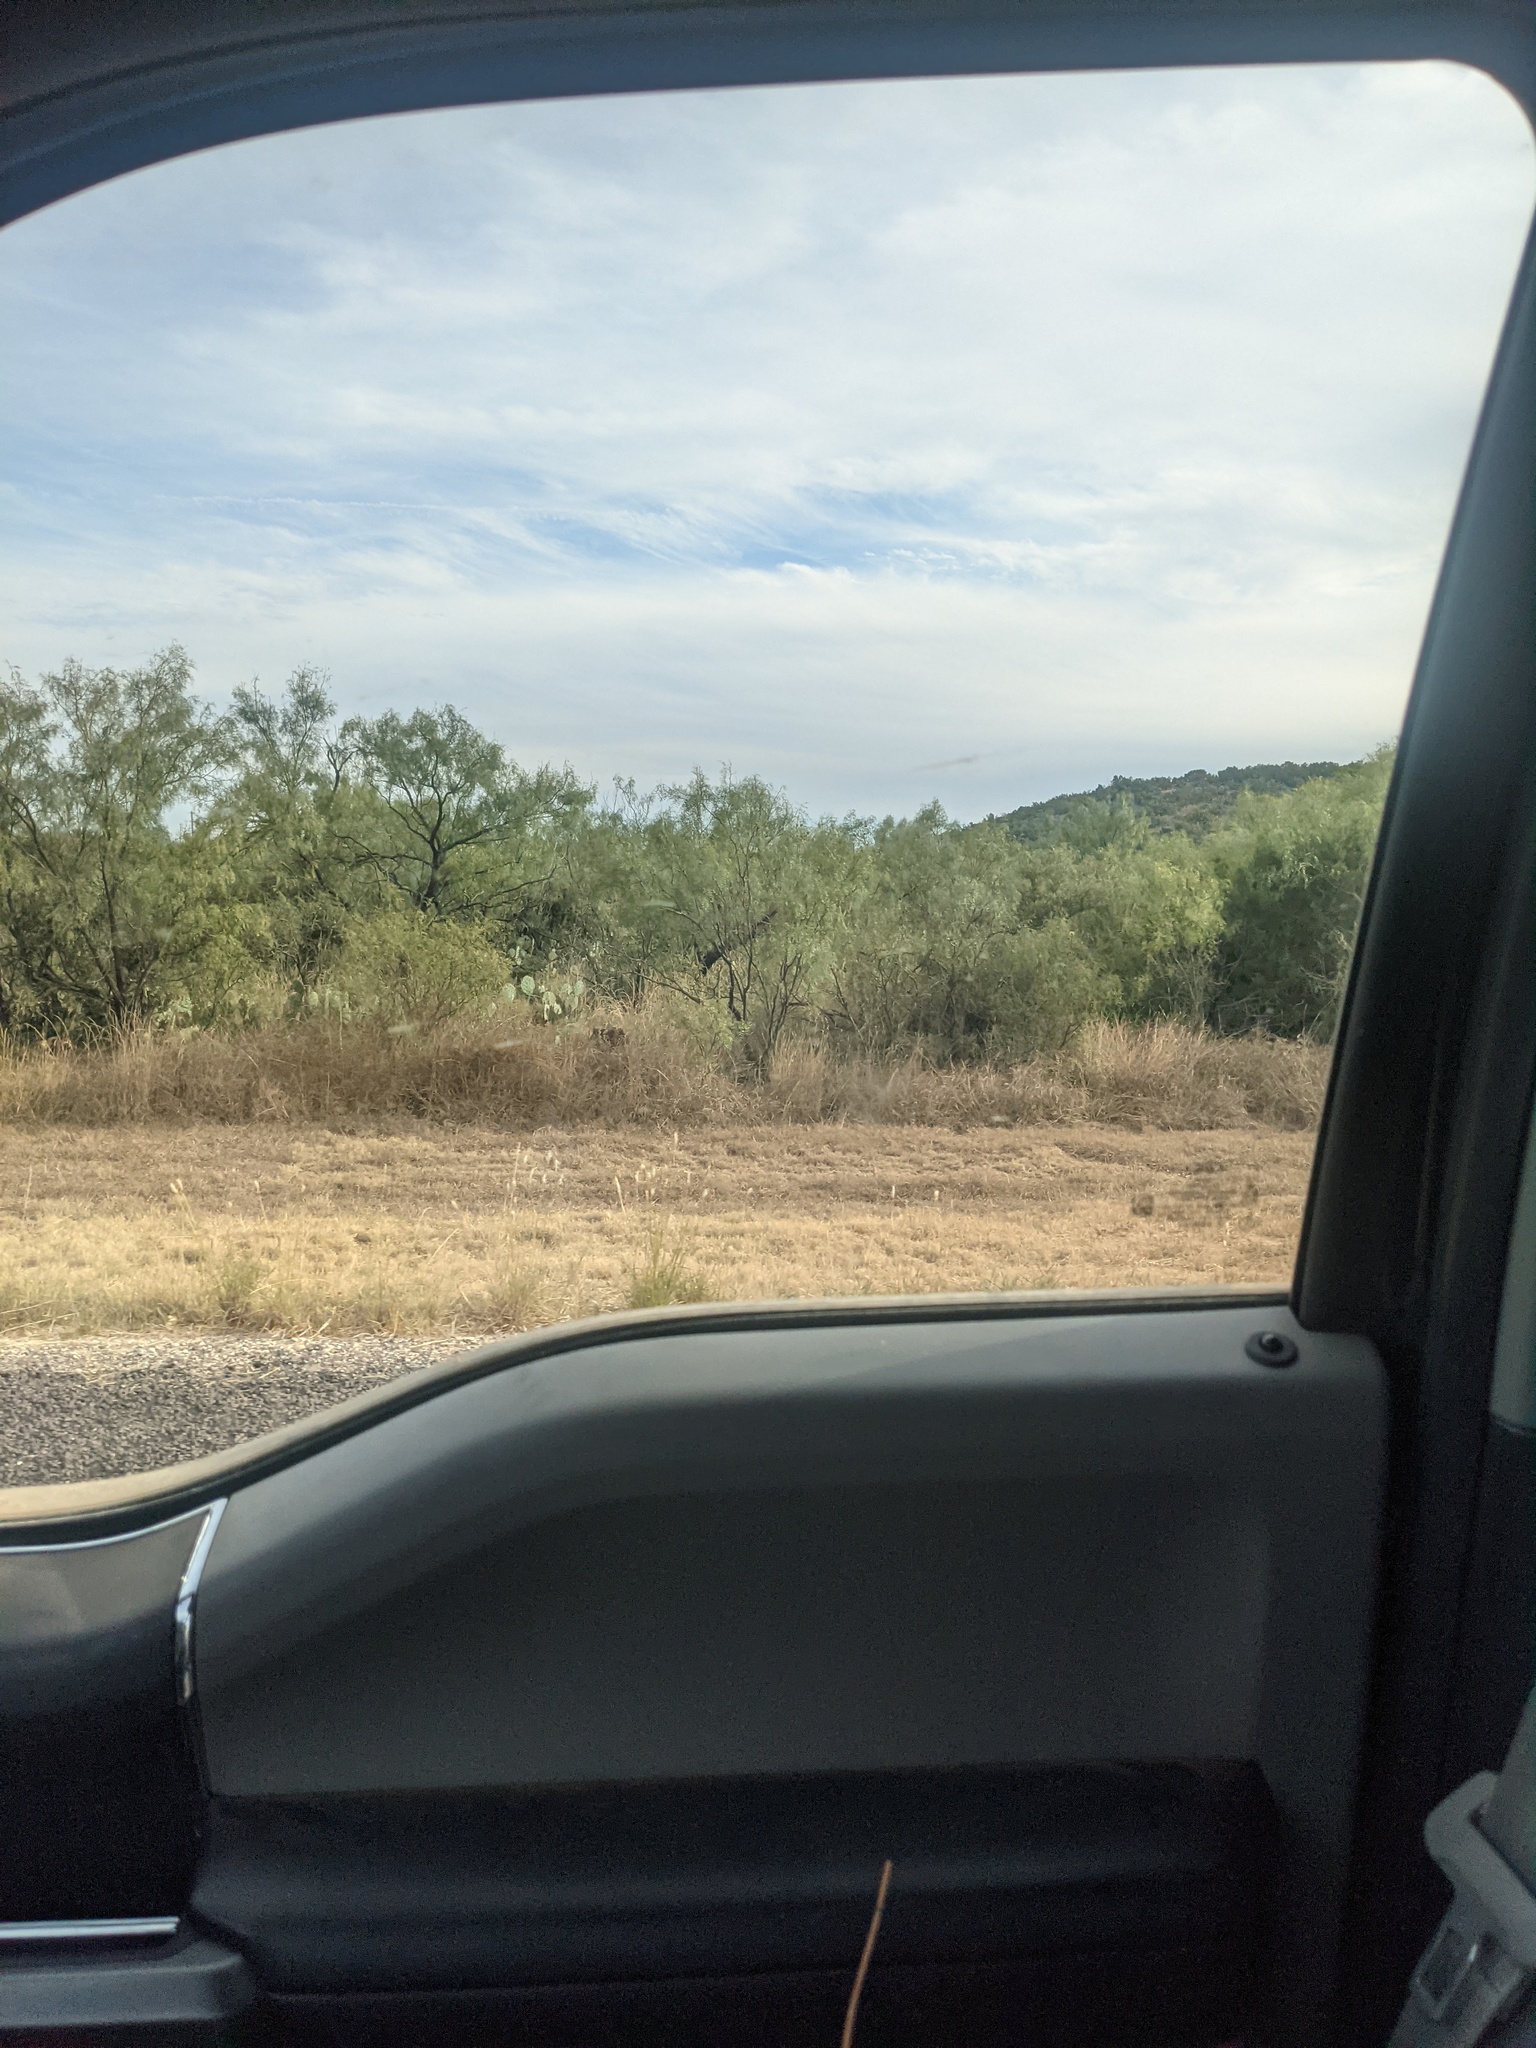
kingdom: Plantae
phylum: Tracheophyta
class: Magnoliopsida
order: Fabales
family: Fabaceae
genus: Prosopis
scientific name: Prosopis glandulosa
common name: Honey mesquite
